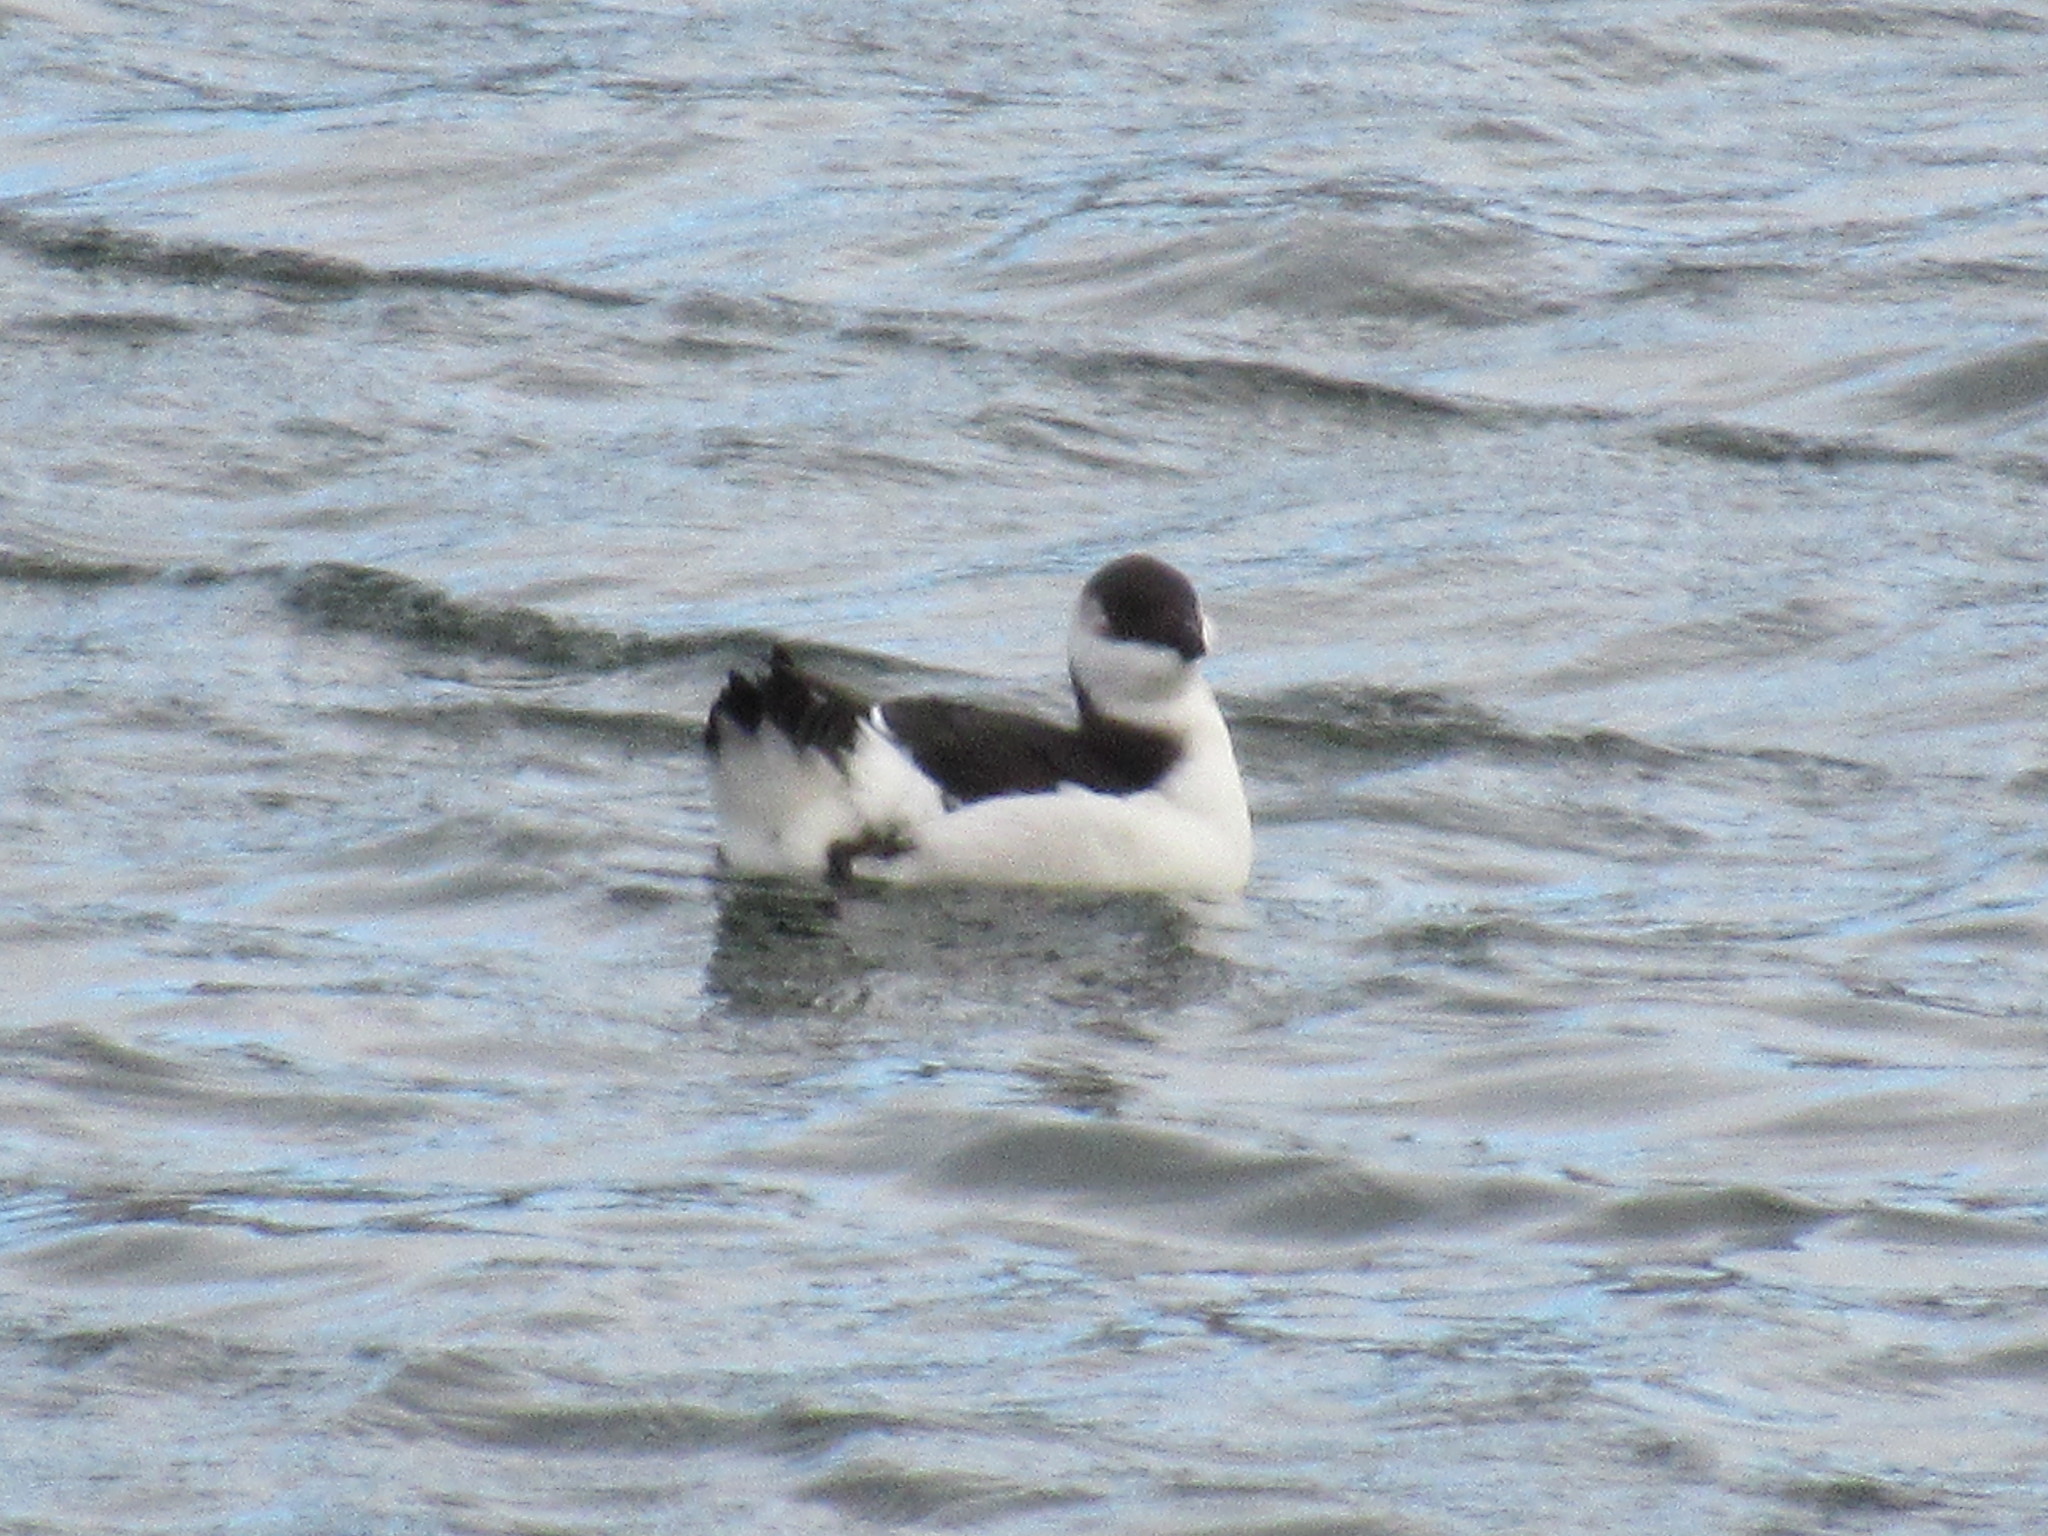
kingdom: Animalia
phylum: Chordata
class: Aves
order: Charadriiformes
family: Alcidae
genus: Alca
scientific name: Alca torda
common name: Razorbill
